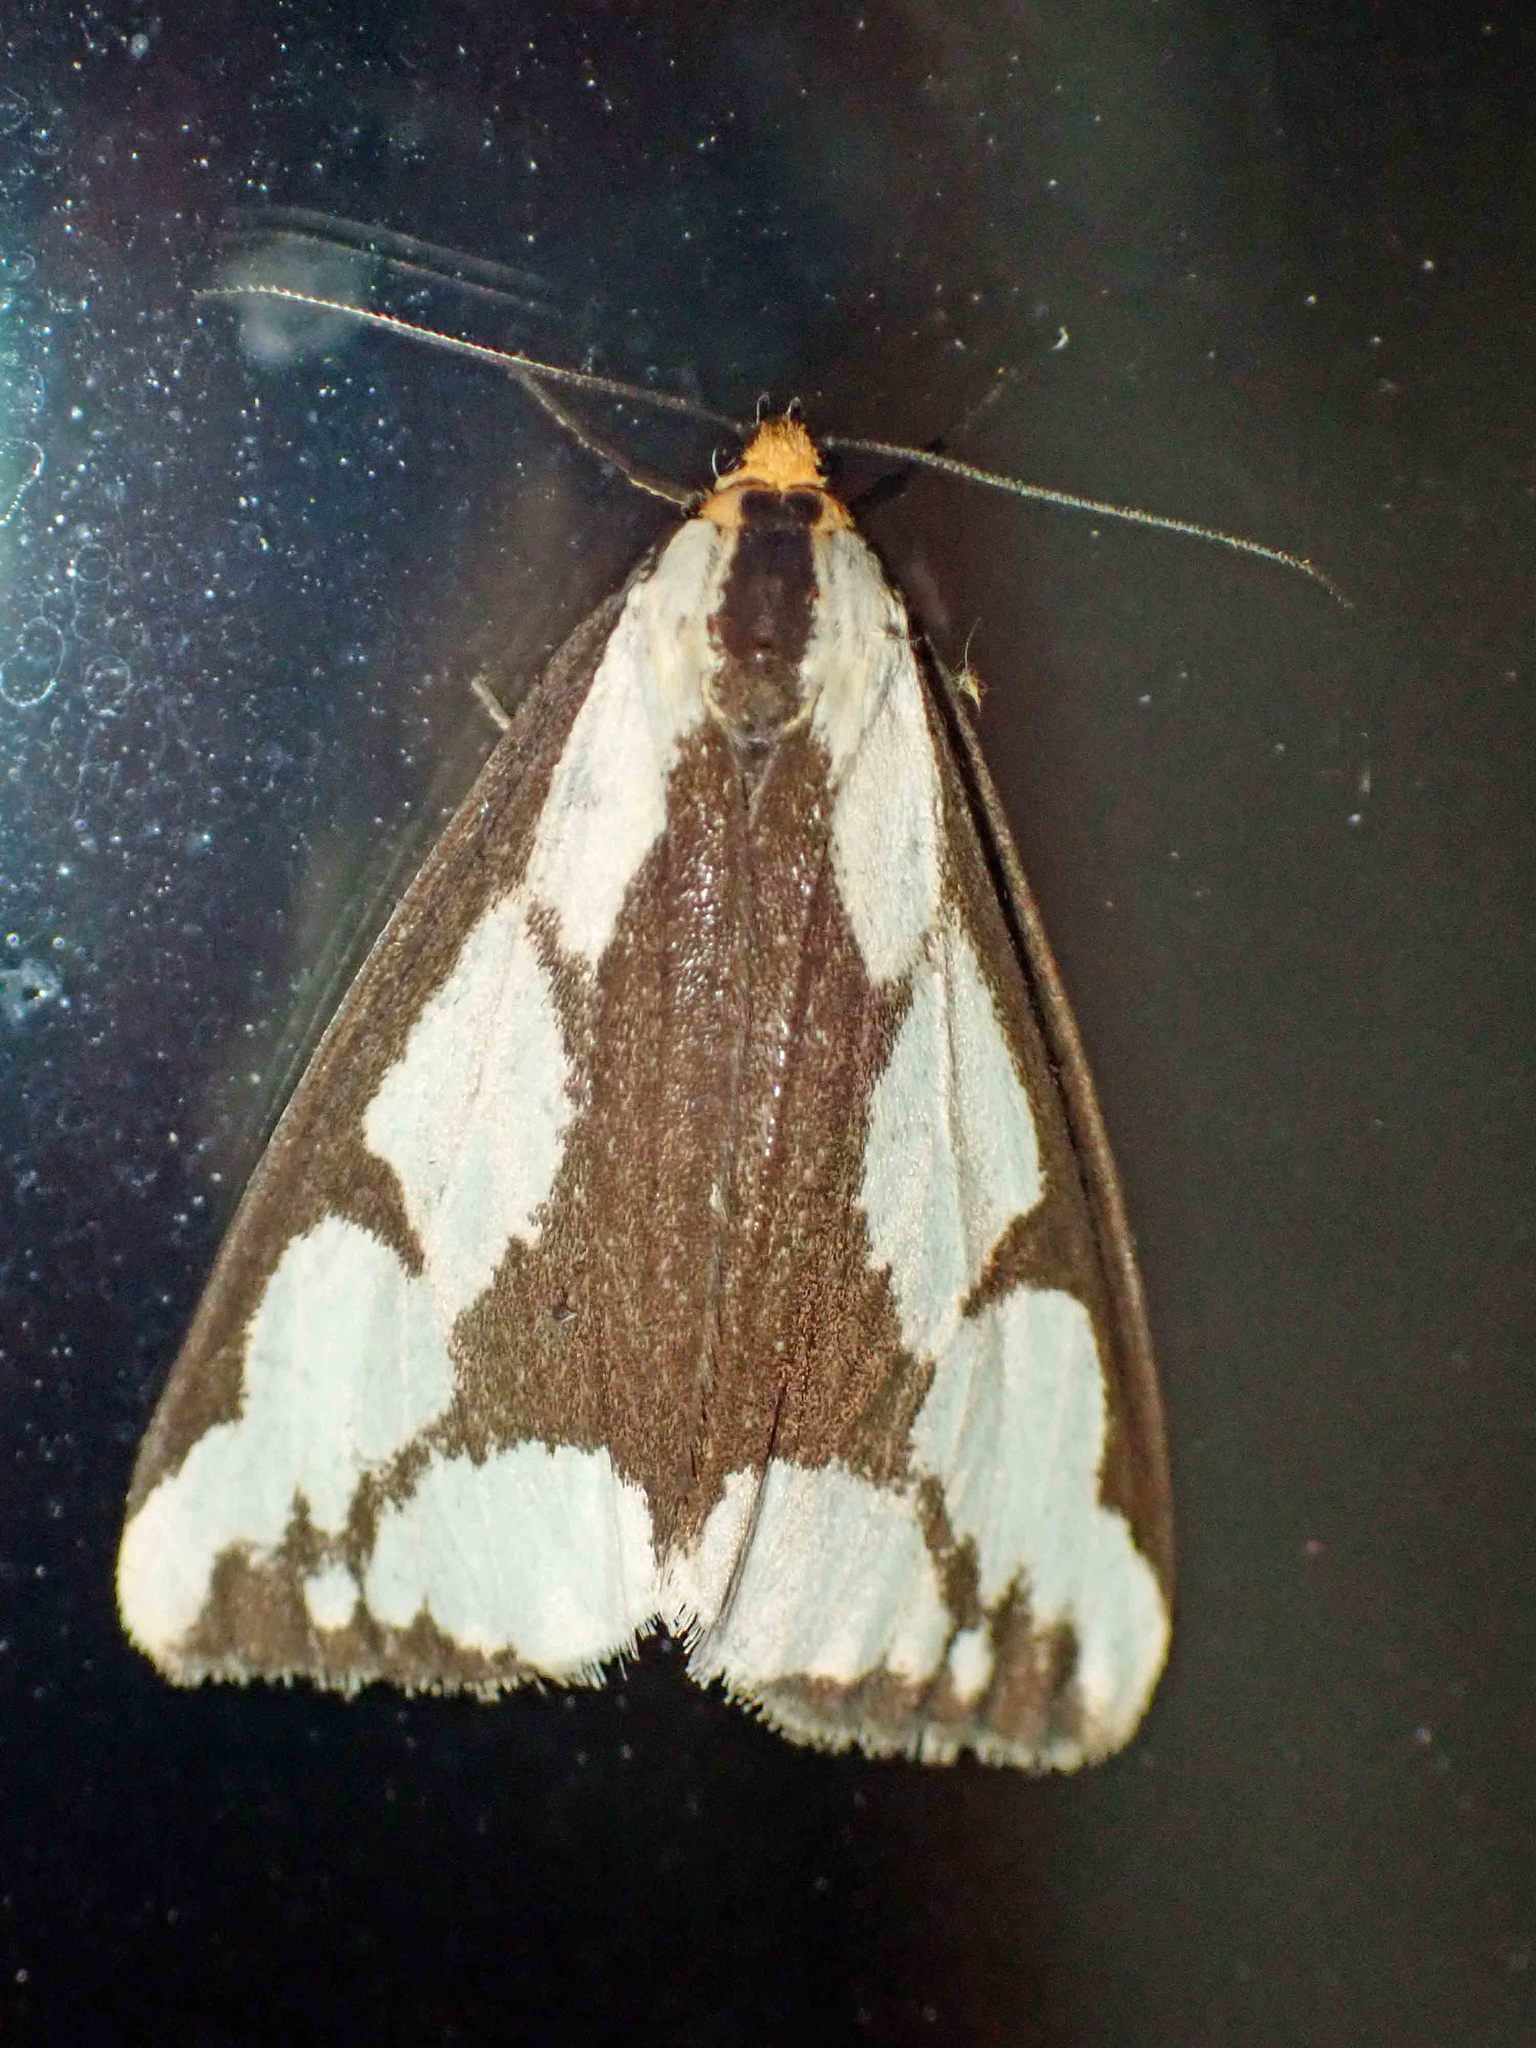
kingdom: Animalia
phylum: Arthropoda
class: Insecta
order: Lepidoptera
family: Erebidae
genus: Haploa
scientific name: Haploa lecontei
